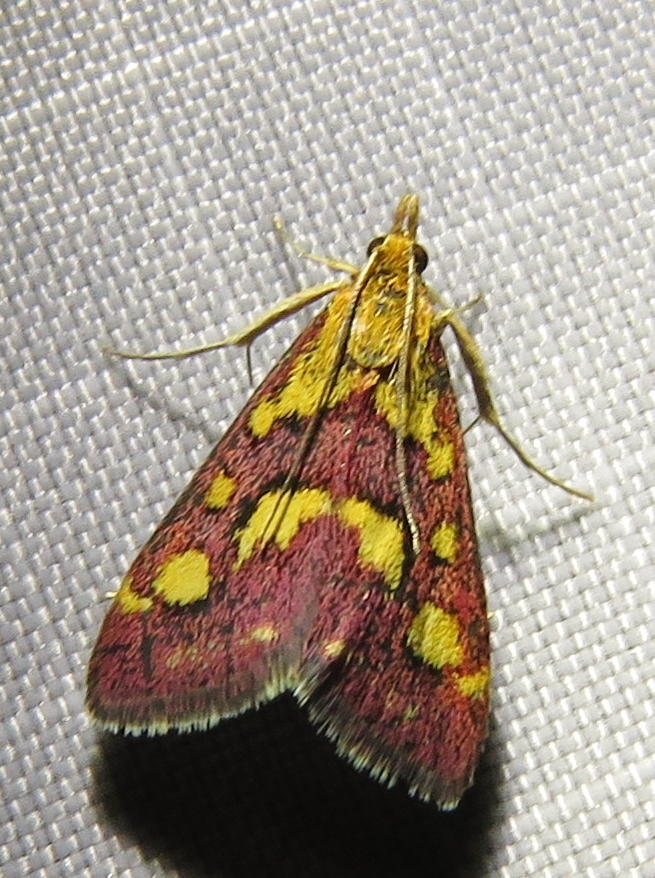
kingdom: Animalia
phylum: Arthropoda
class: Insecta
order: Lepidoptera
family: Crambidae
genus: Pyrausta
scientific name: Pyrausta purpuralis
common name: Common purple & gold
